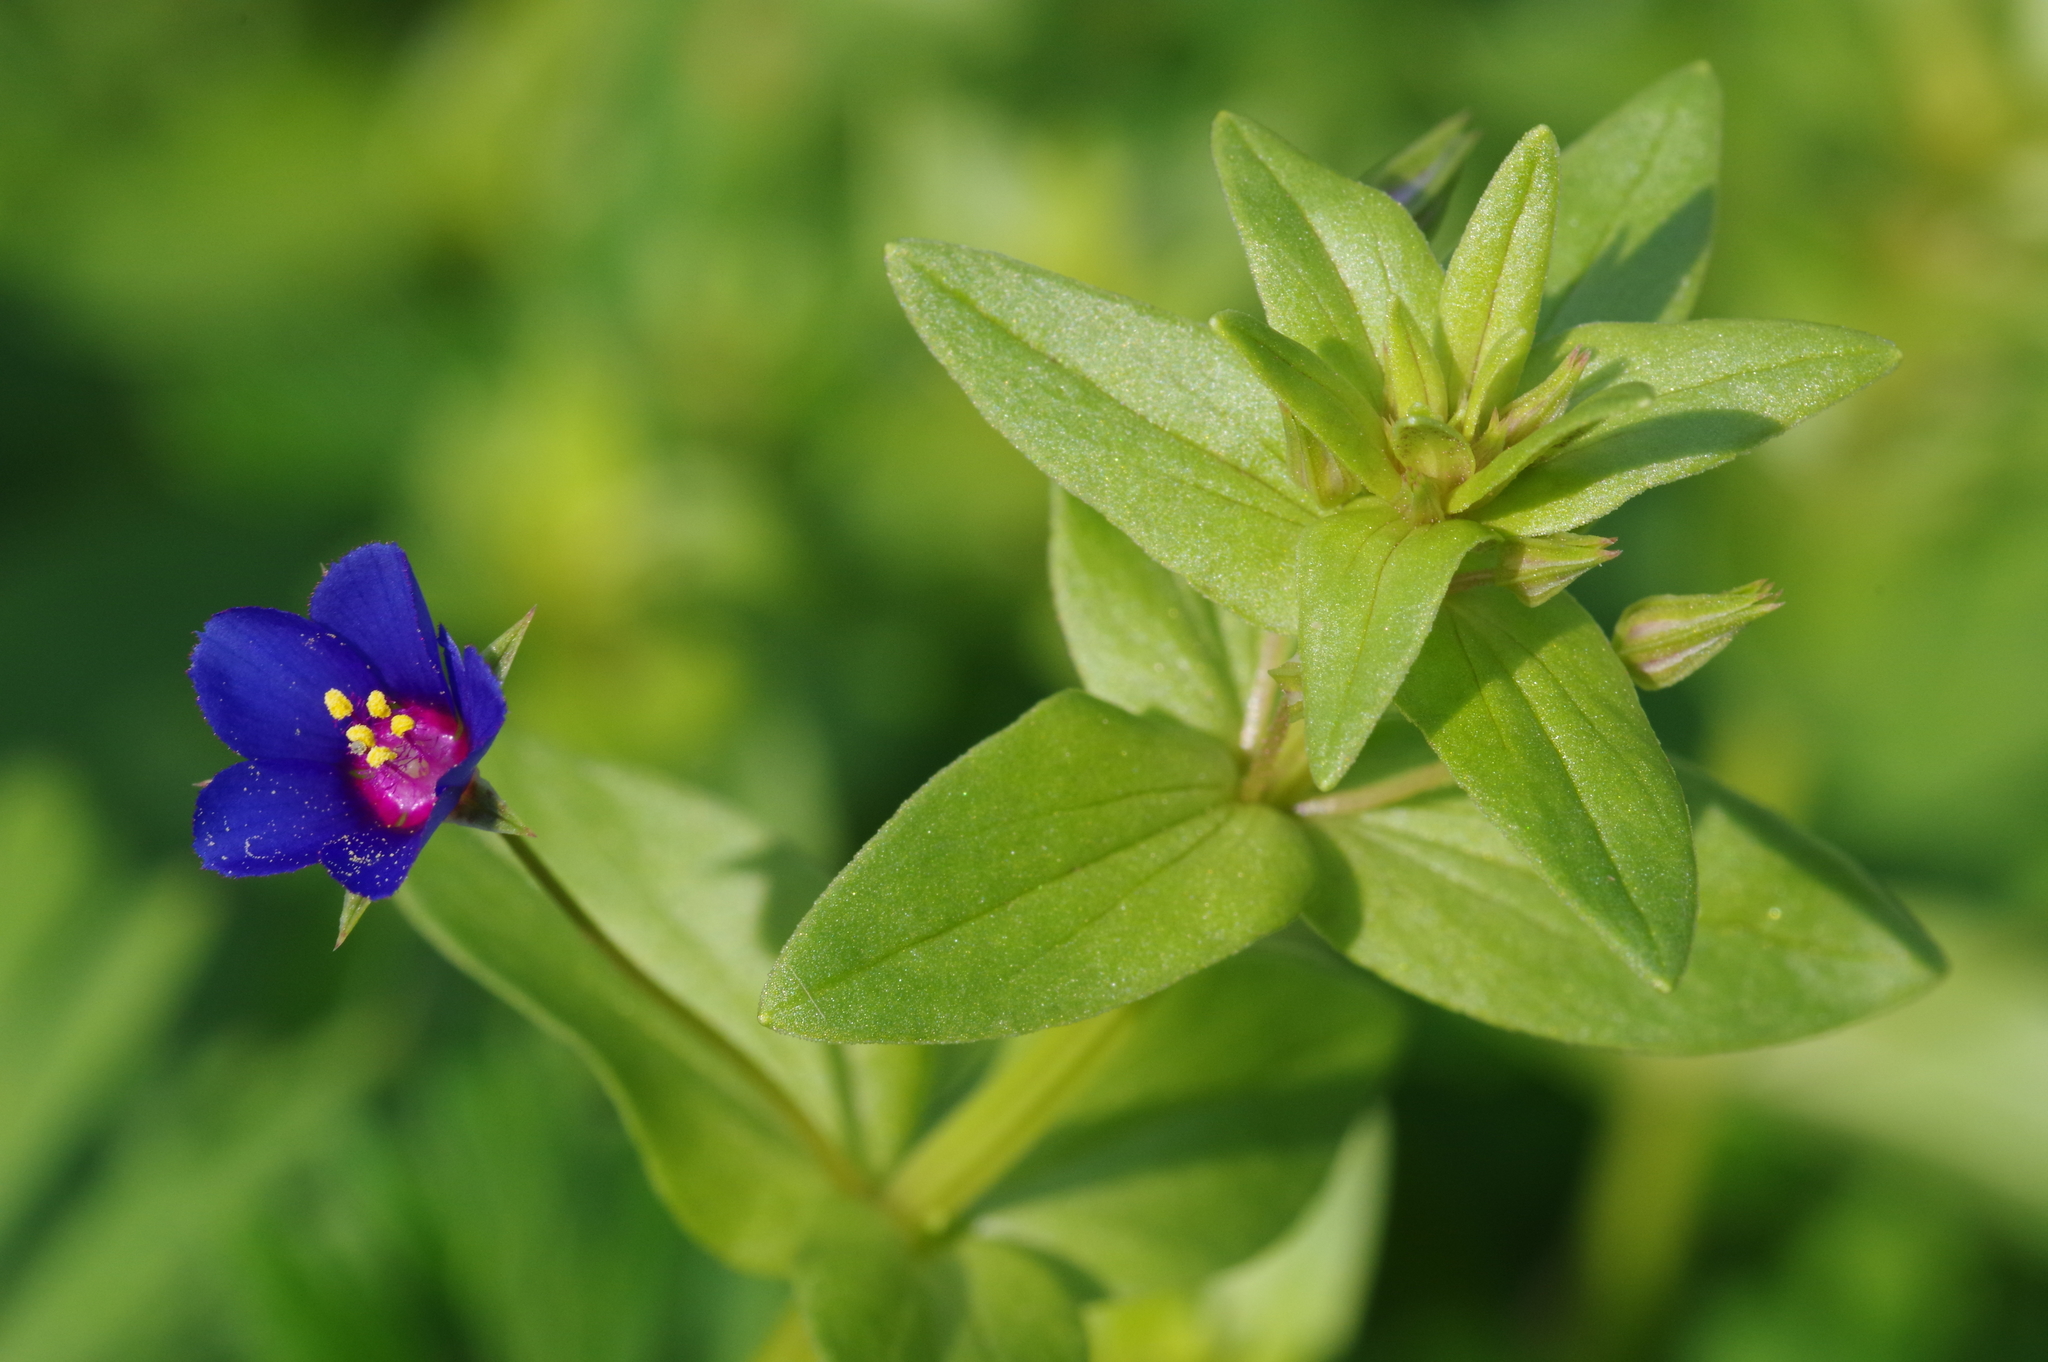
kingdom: Plantae
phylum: Tracheophyta
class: Magnoliopsida
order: Ericales
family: Primulaceae
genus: Lysimachia
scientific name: Lysimachia foemina
